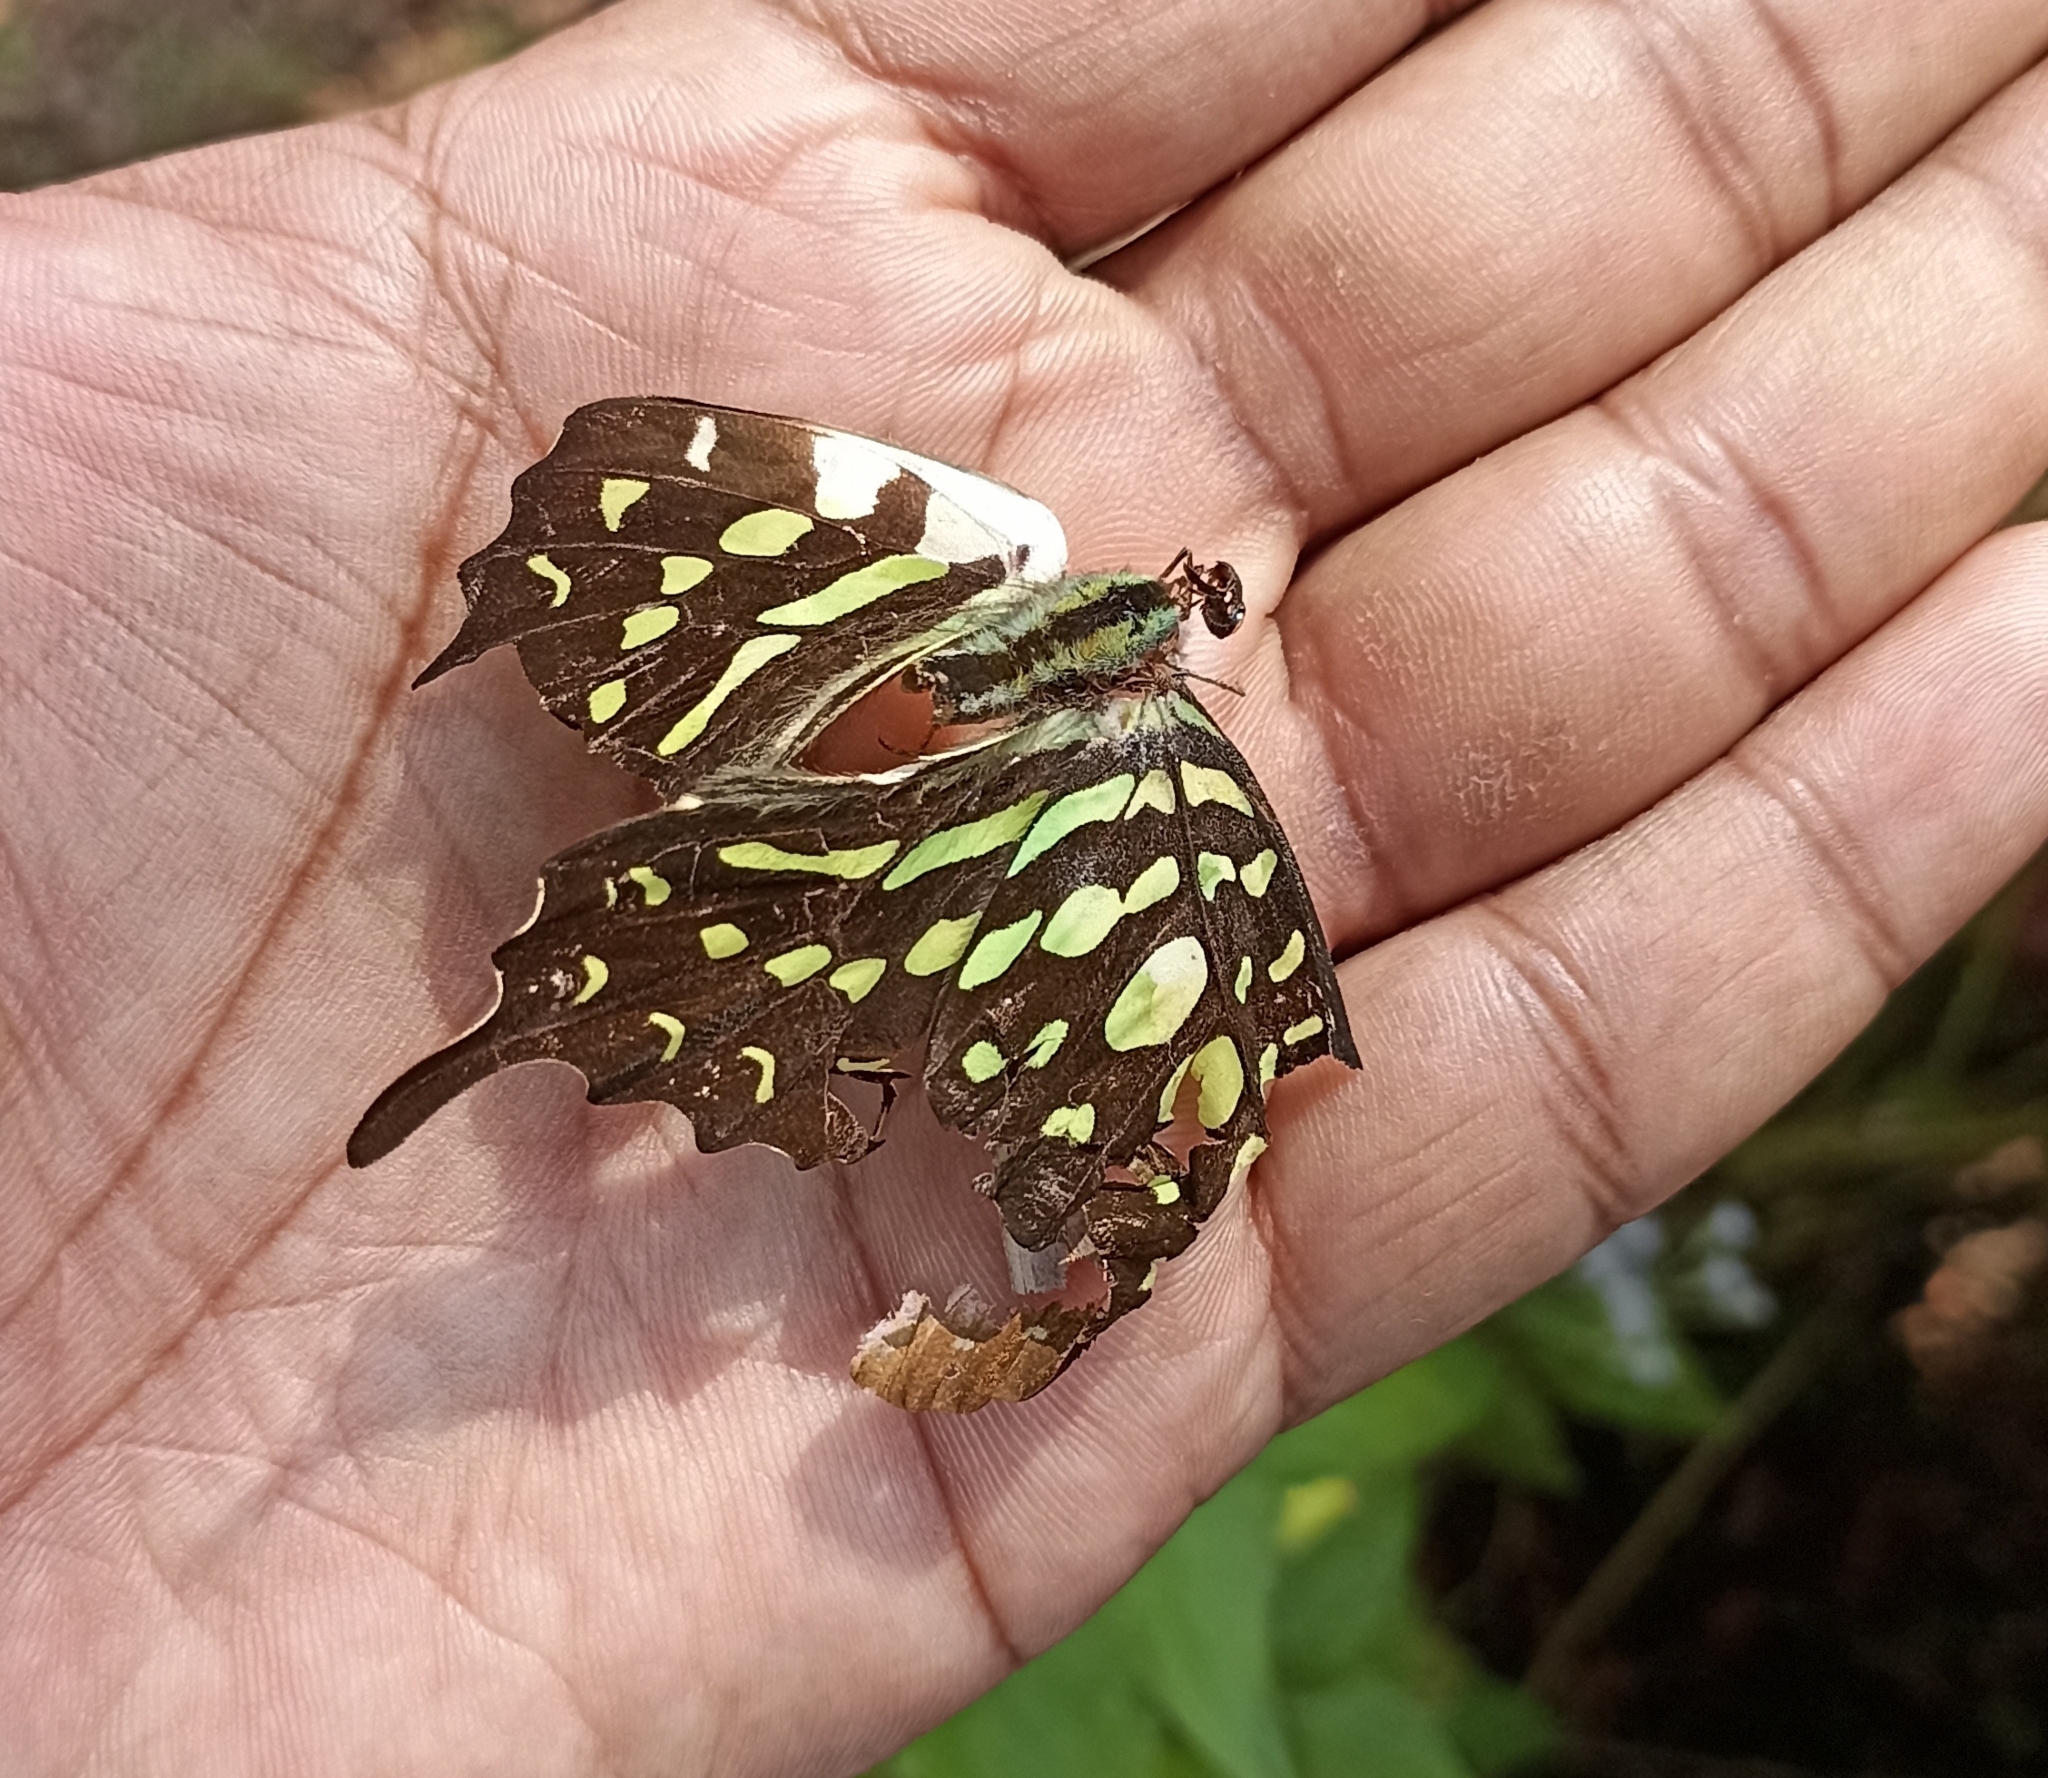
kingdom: Animalia
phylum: Arthropoda
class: Insecta
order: Lepidoptera
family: Papilionidae
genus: Graphium
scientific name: Graphium agamemnon
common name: Tailed jay
